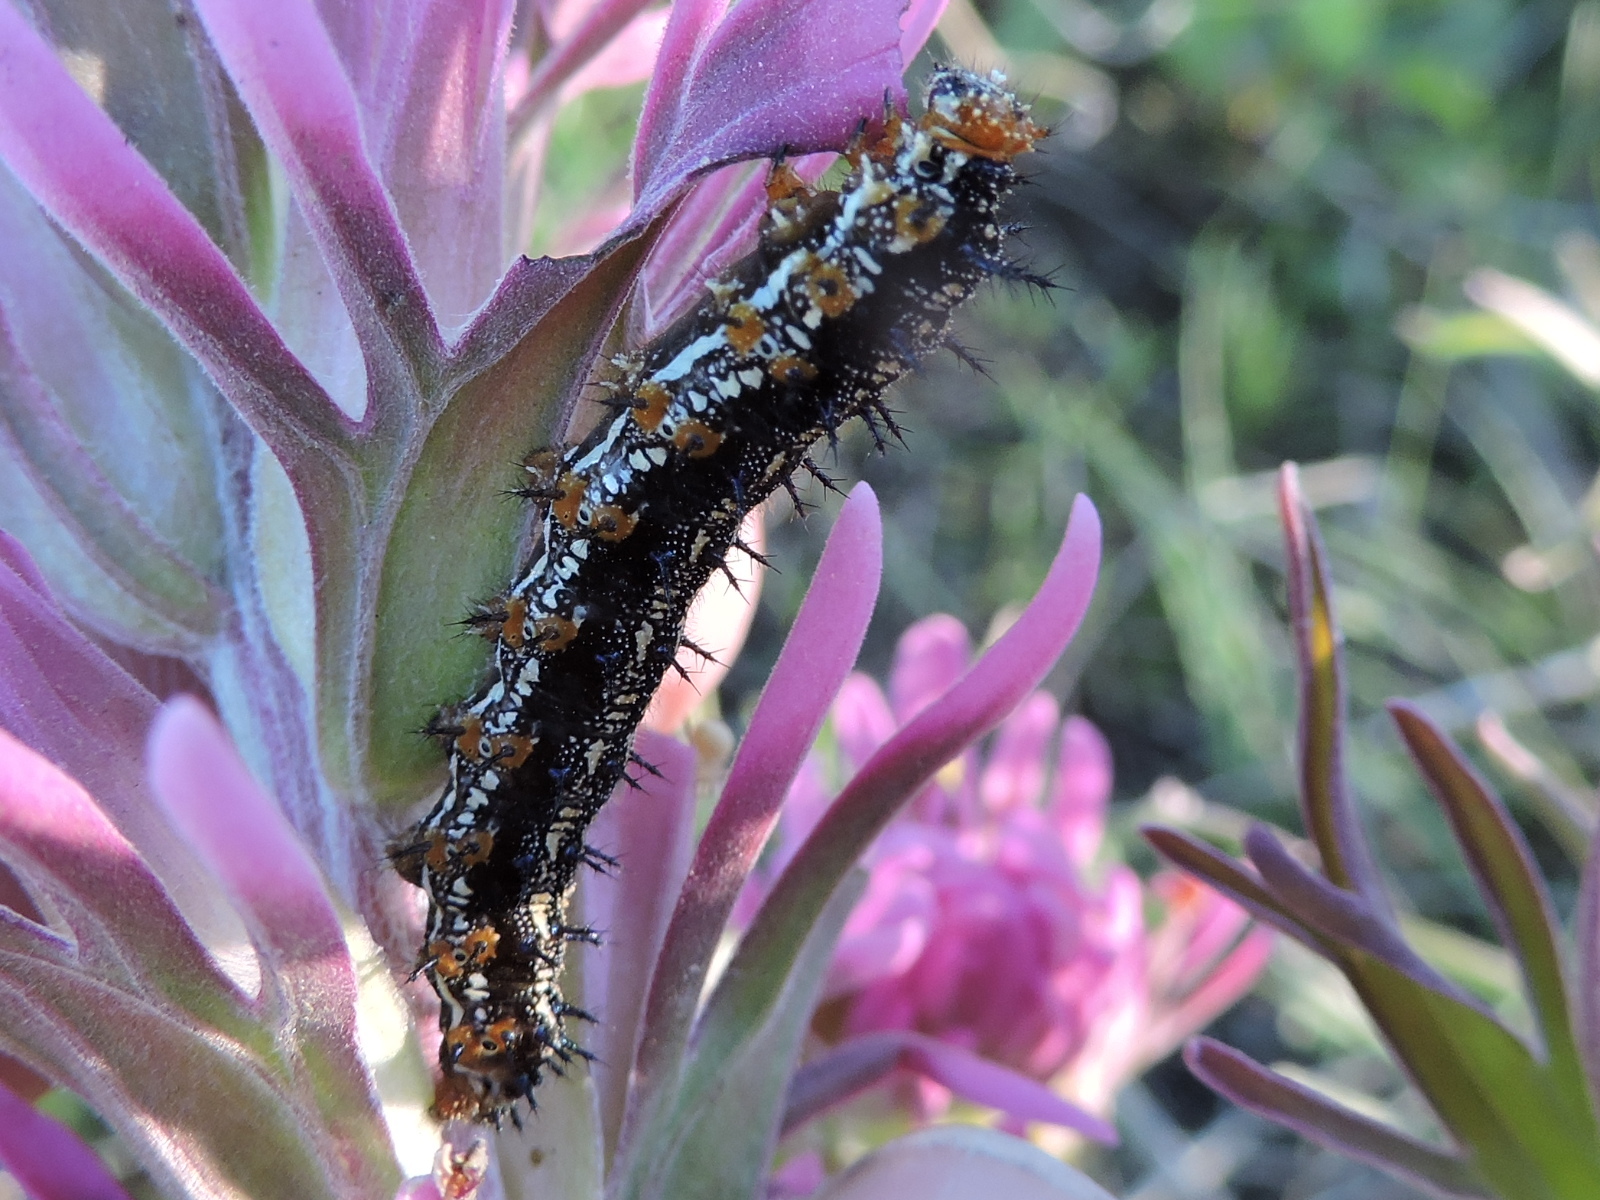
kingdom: Animalia
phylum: Arthropoda
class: Insecta
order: Lepidoptera
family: Nymphalidae
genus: Junonia
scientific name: Junonia coenia
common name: Common buckeye
